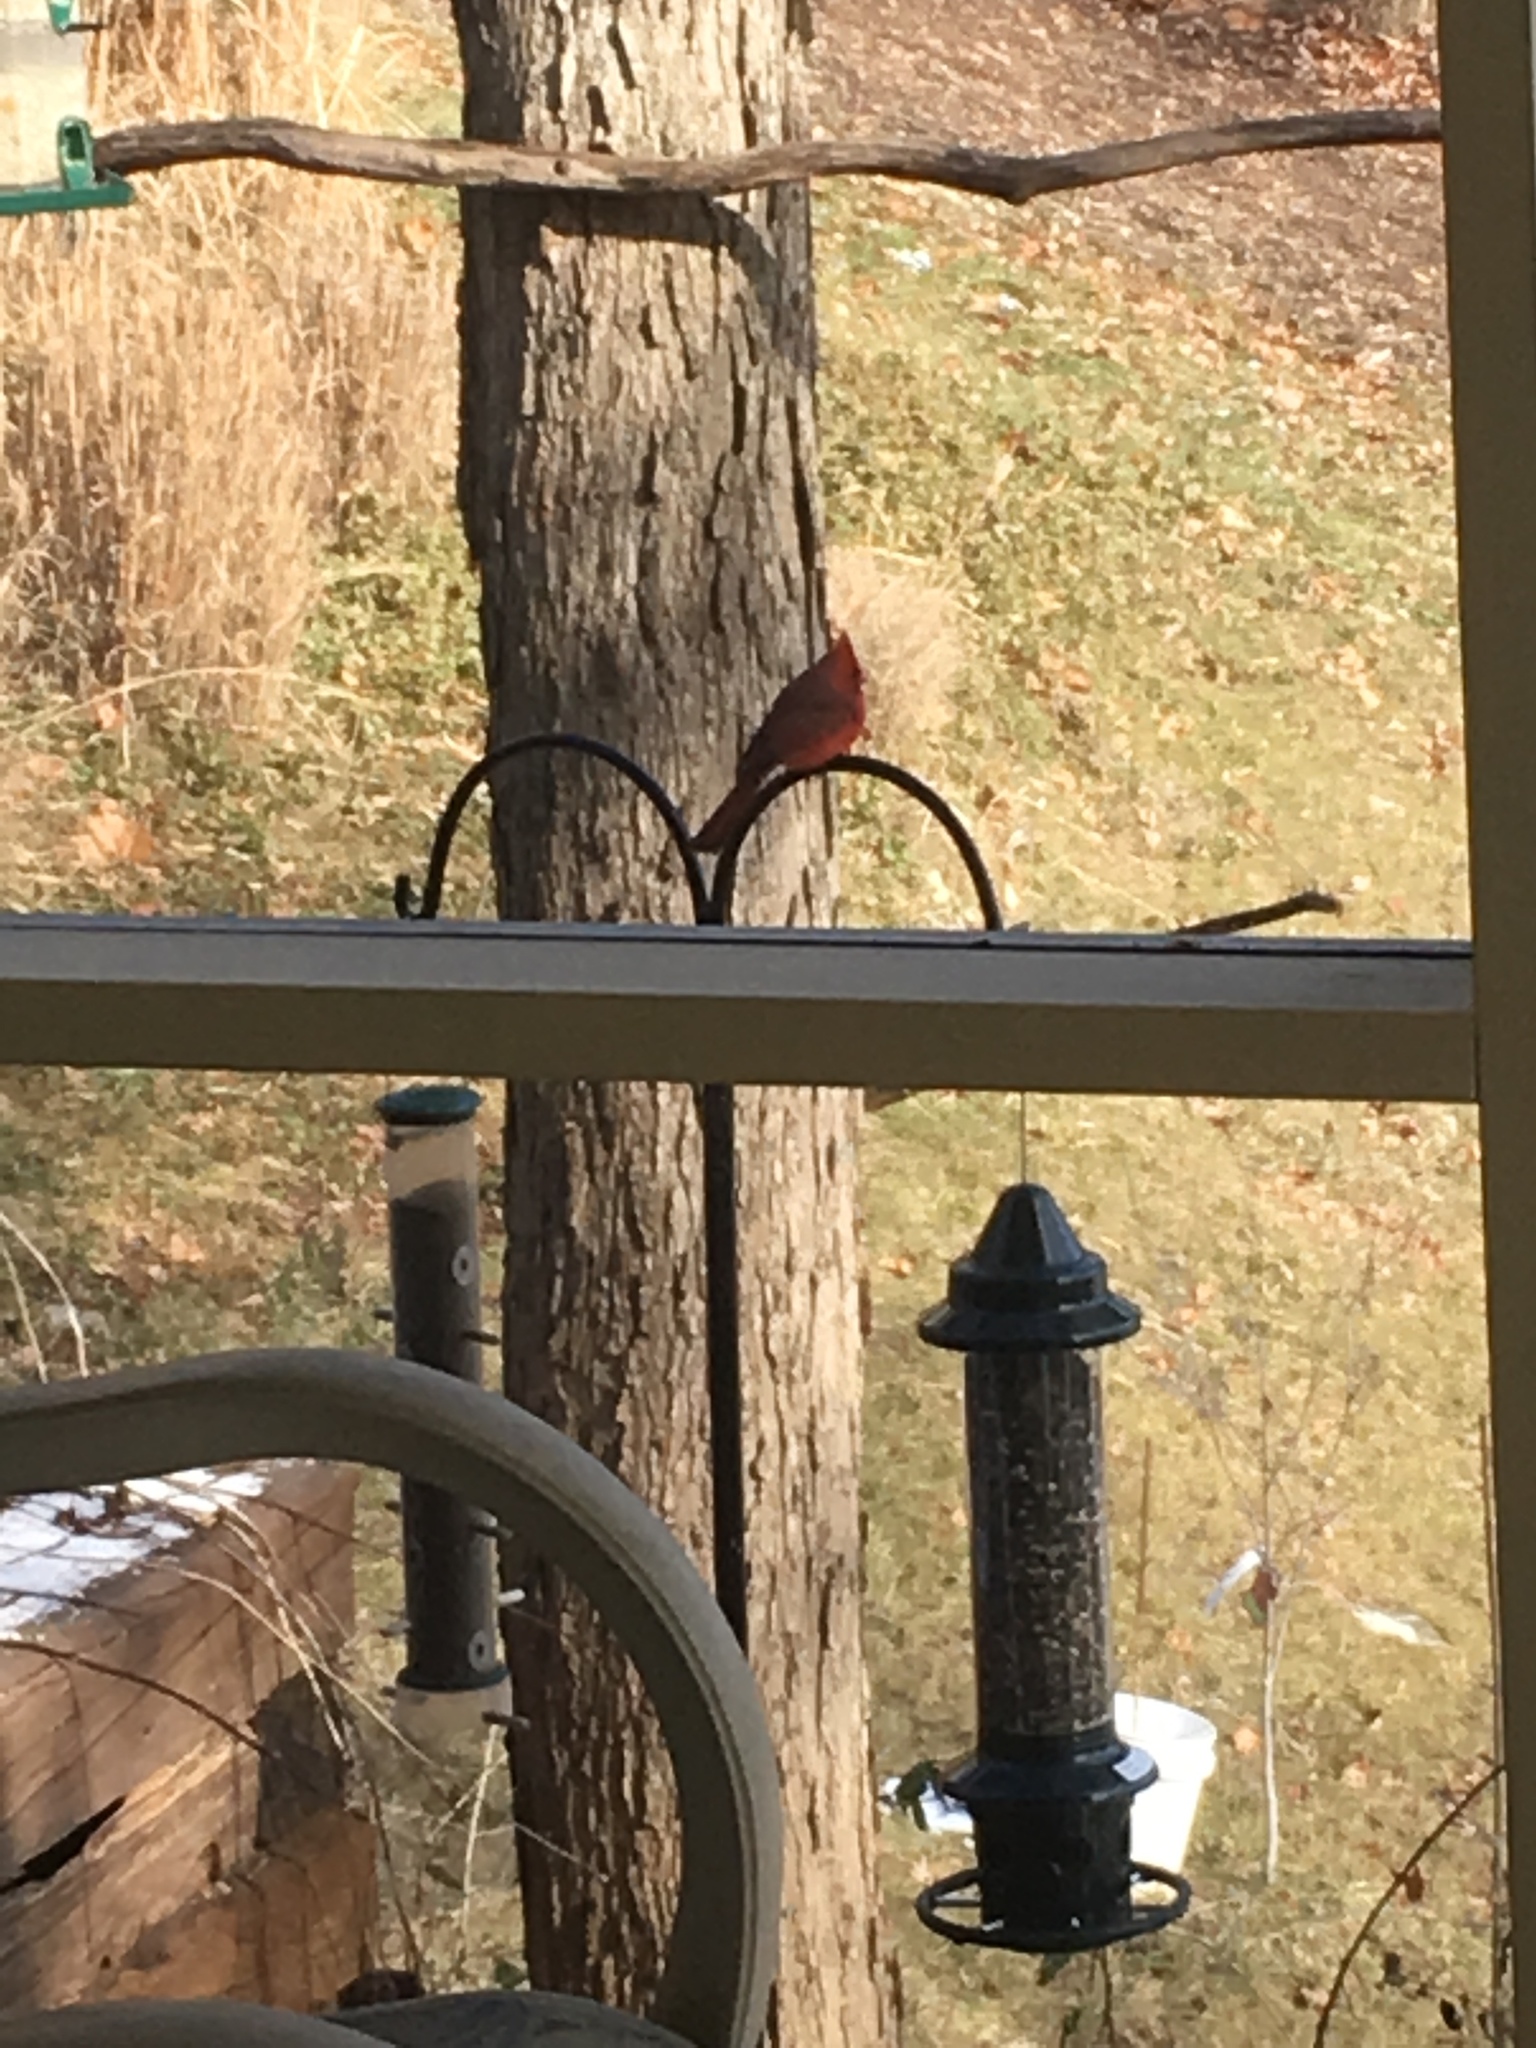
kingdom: Animalia
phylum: Chordata
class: Aves
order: Passeriformes
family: Cardinalidae
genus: Cardinalis
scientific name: Cardinalis cardinalis
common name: Northern cardinal
